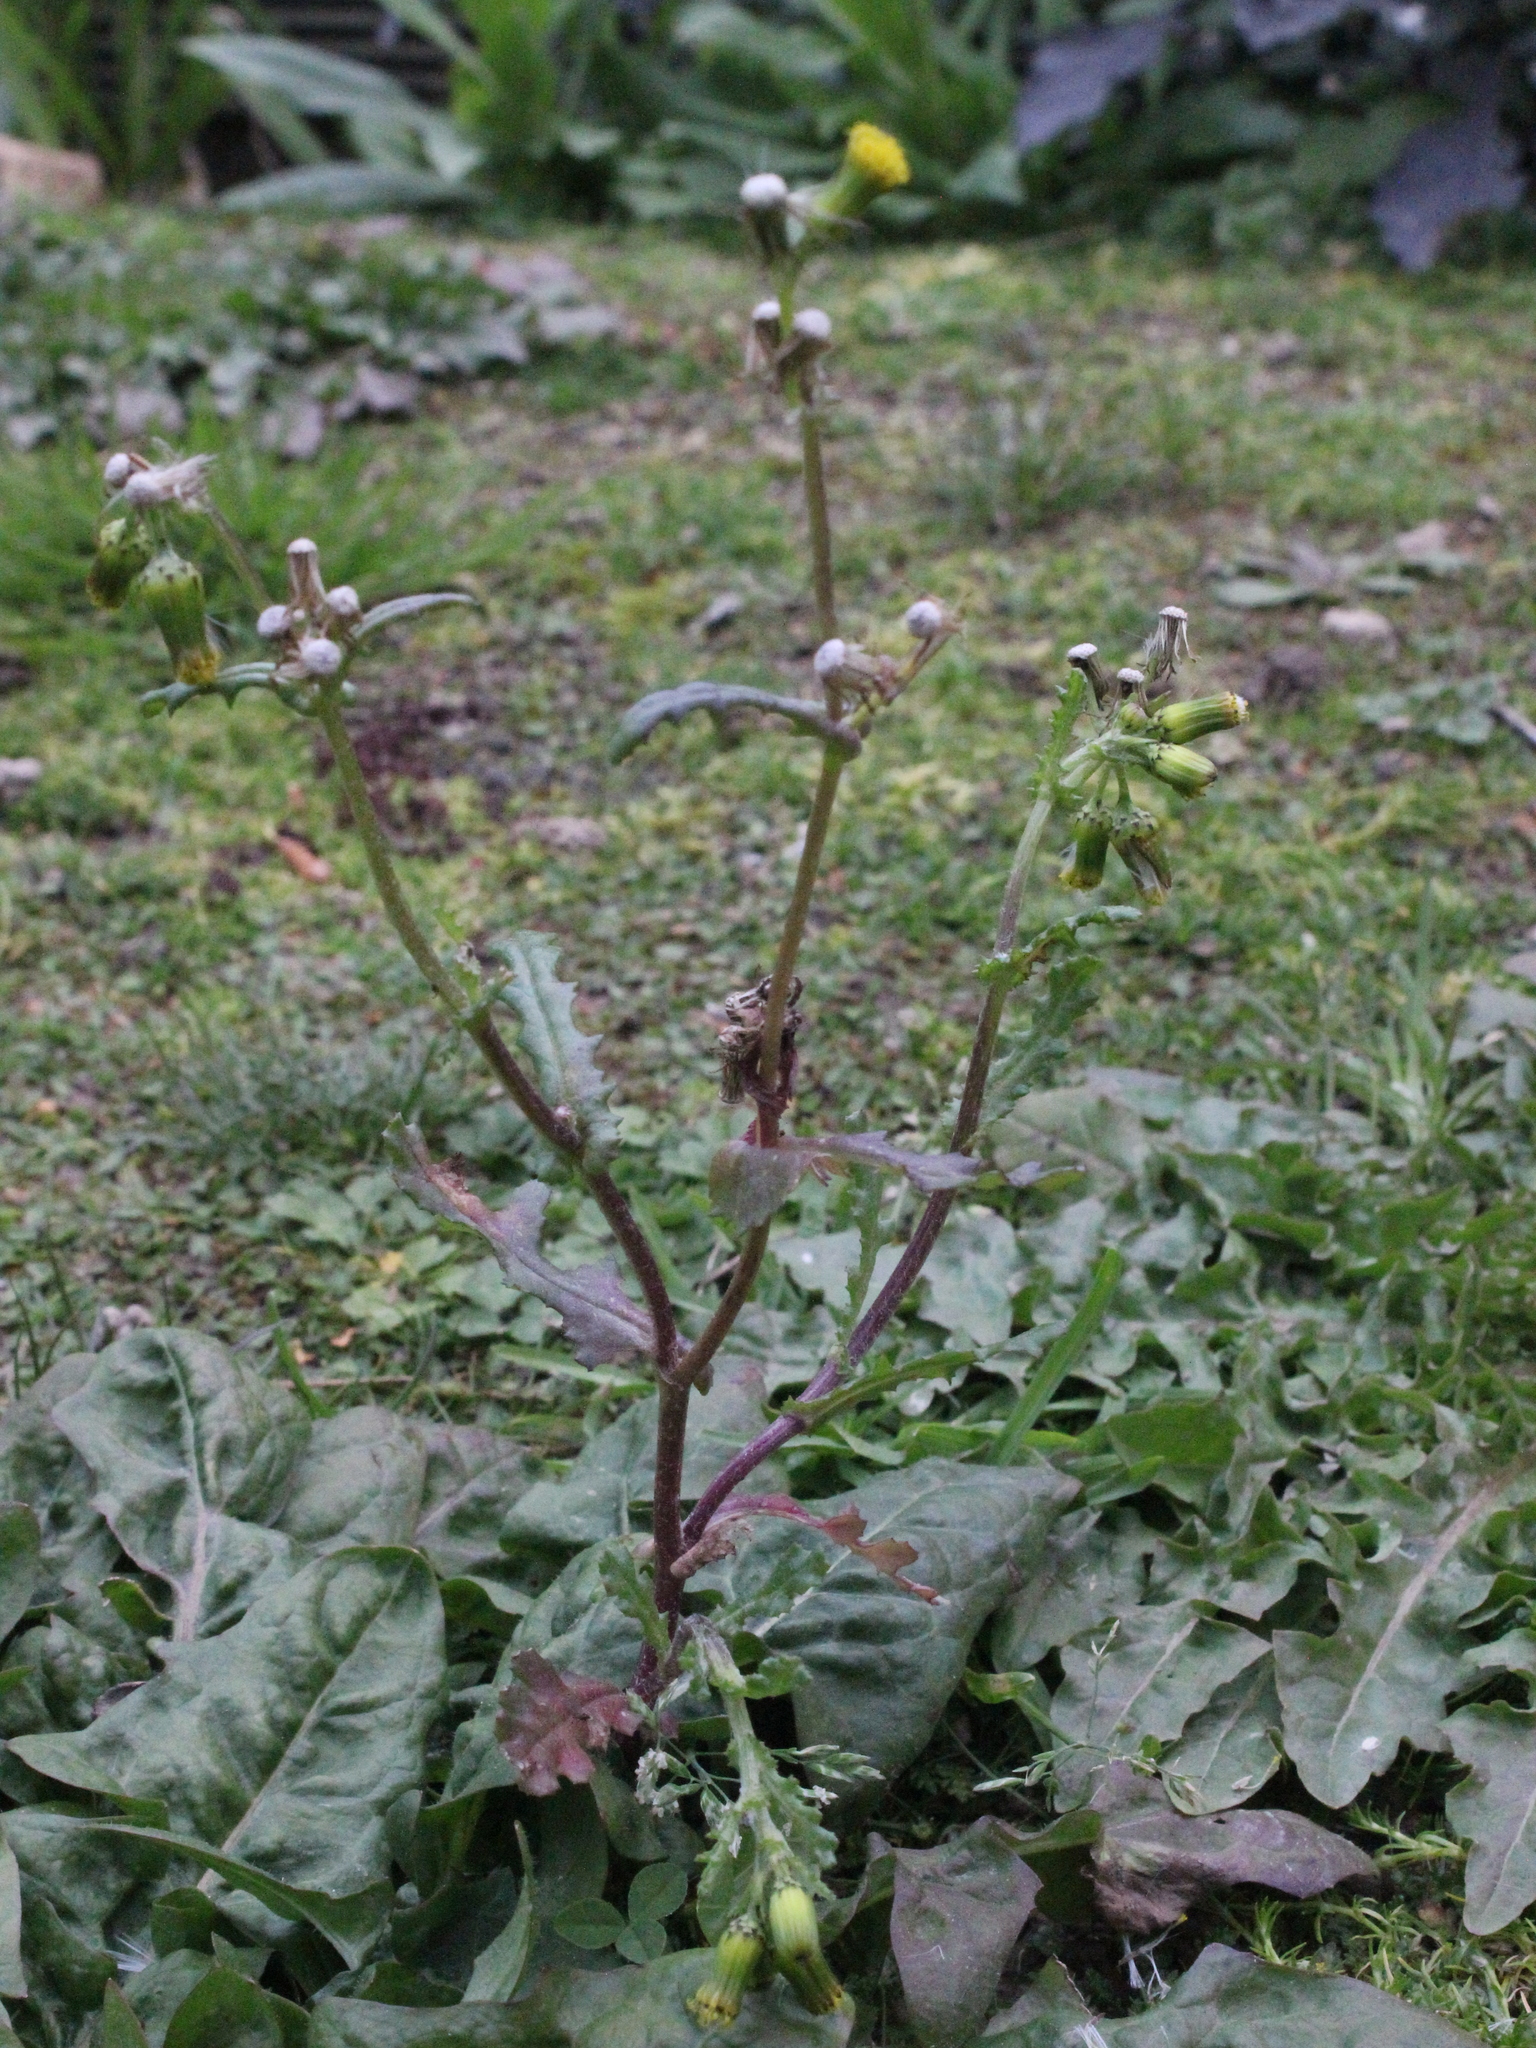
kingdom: Plantae
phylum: Tracheophyta
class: Magnoliopsida
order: Asterales
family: Asteraceae
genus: Senecio
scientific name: Senecio vulgaris
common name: Old-man-in-the-spring
